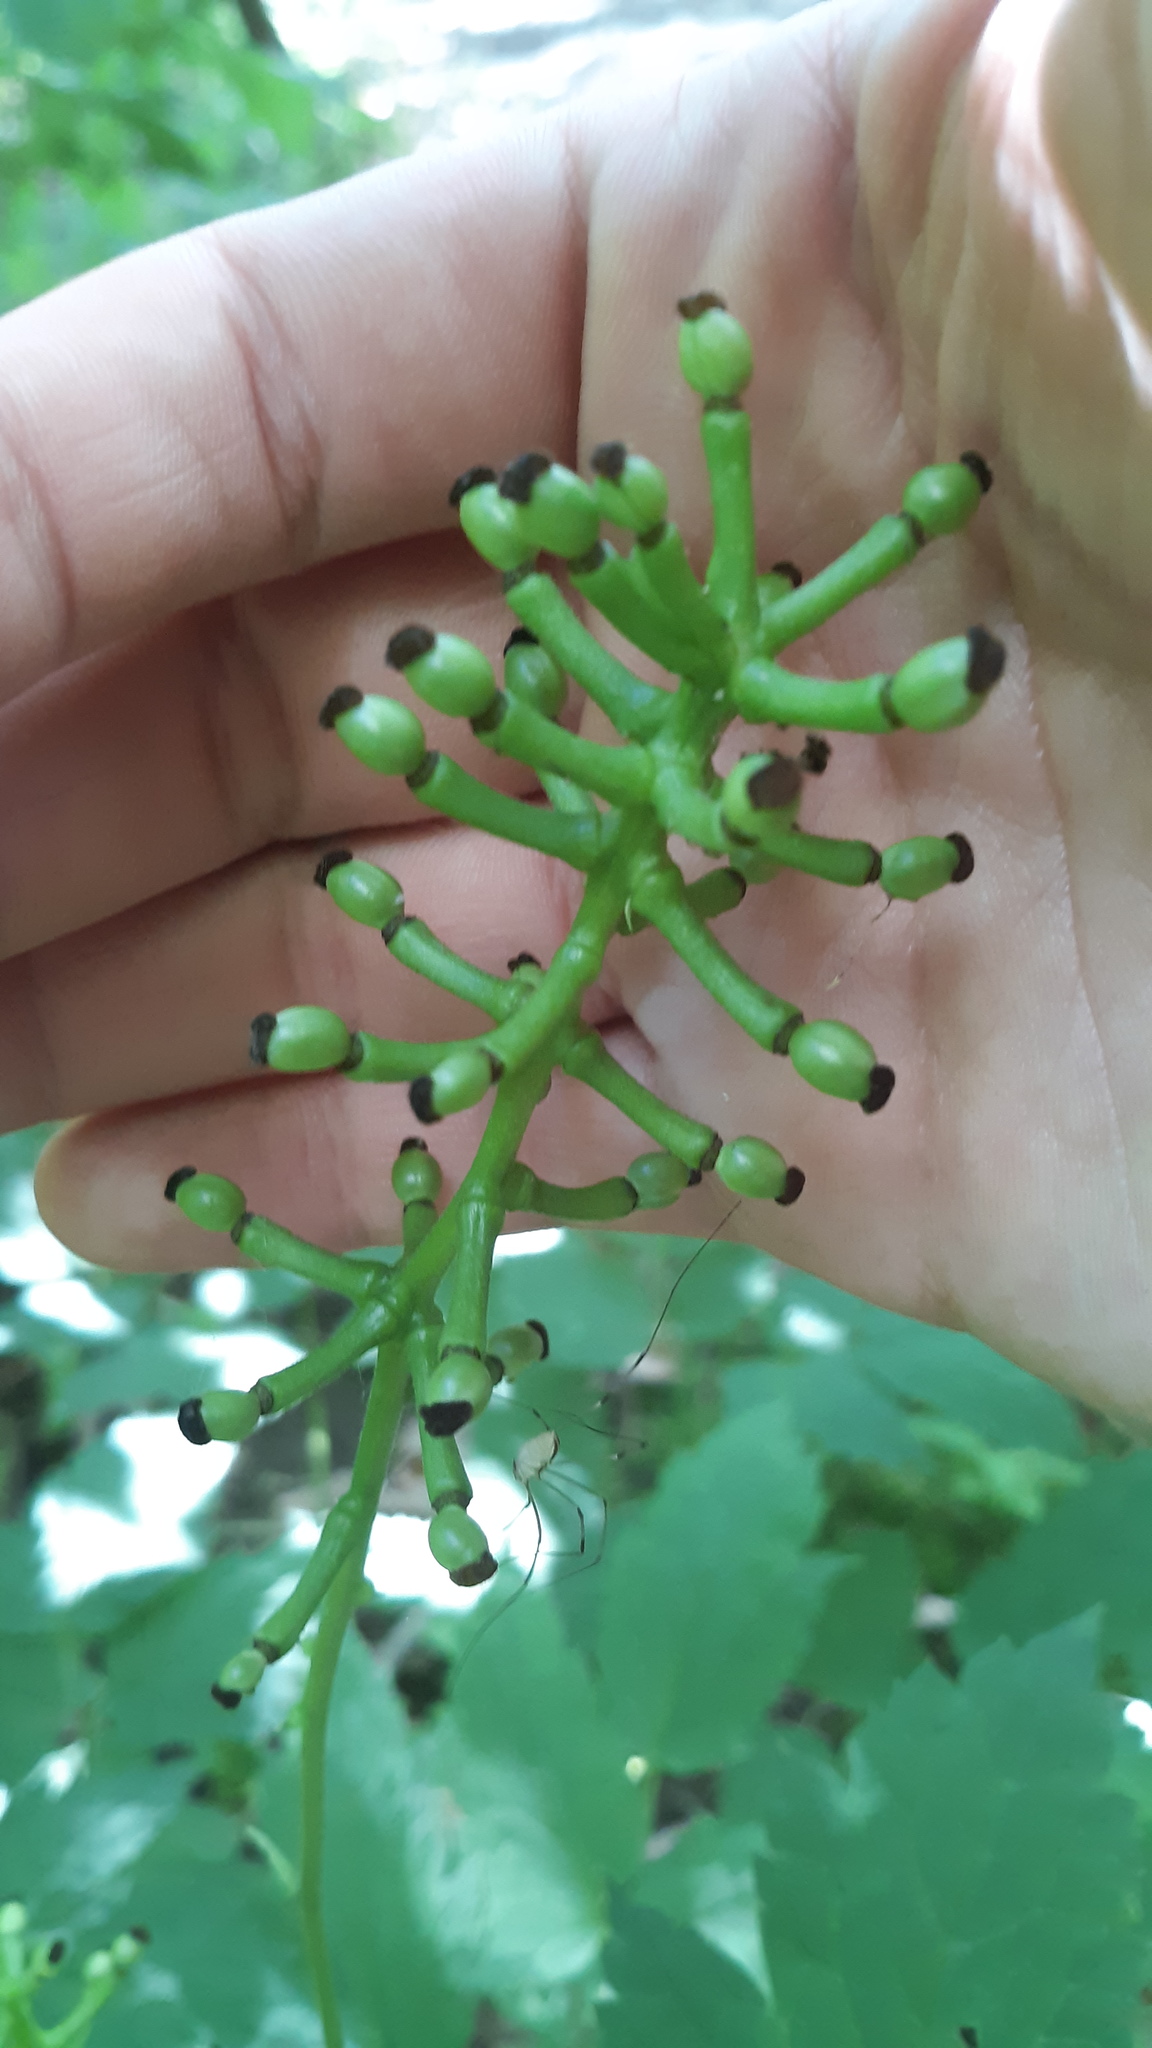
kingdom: Plantae
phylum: Tracheophyta
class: Magnoliopsida
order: Ranunculales
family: Ranunculaceae
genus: Actaea
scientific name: Actaea pachypoda
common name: Doll's-eyes
